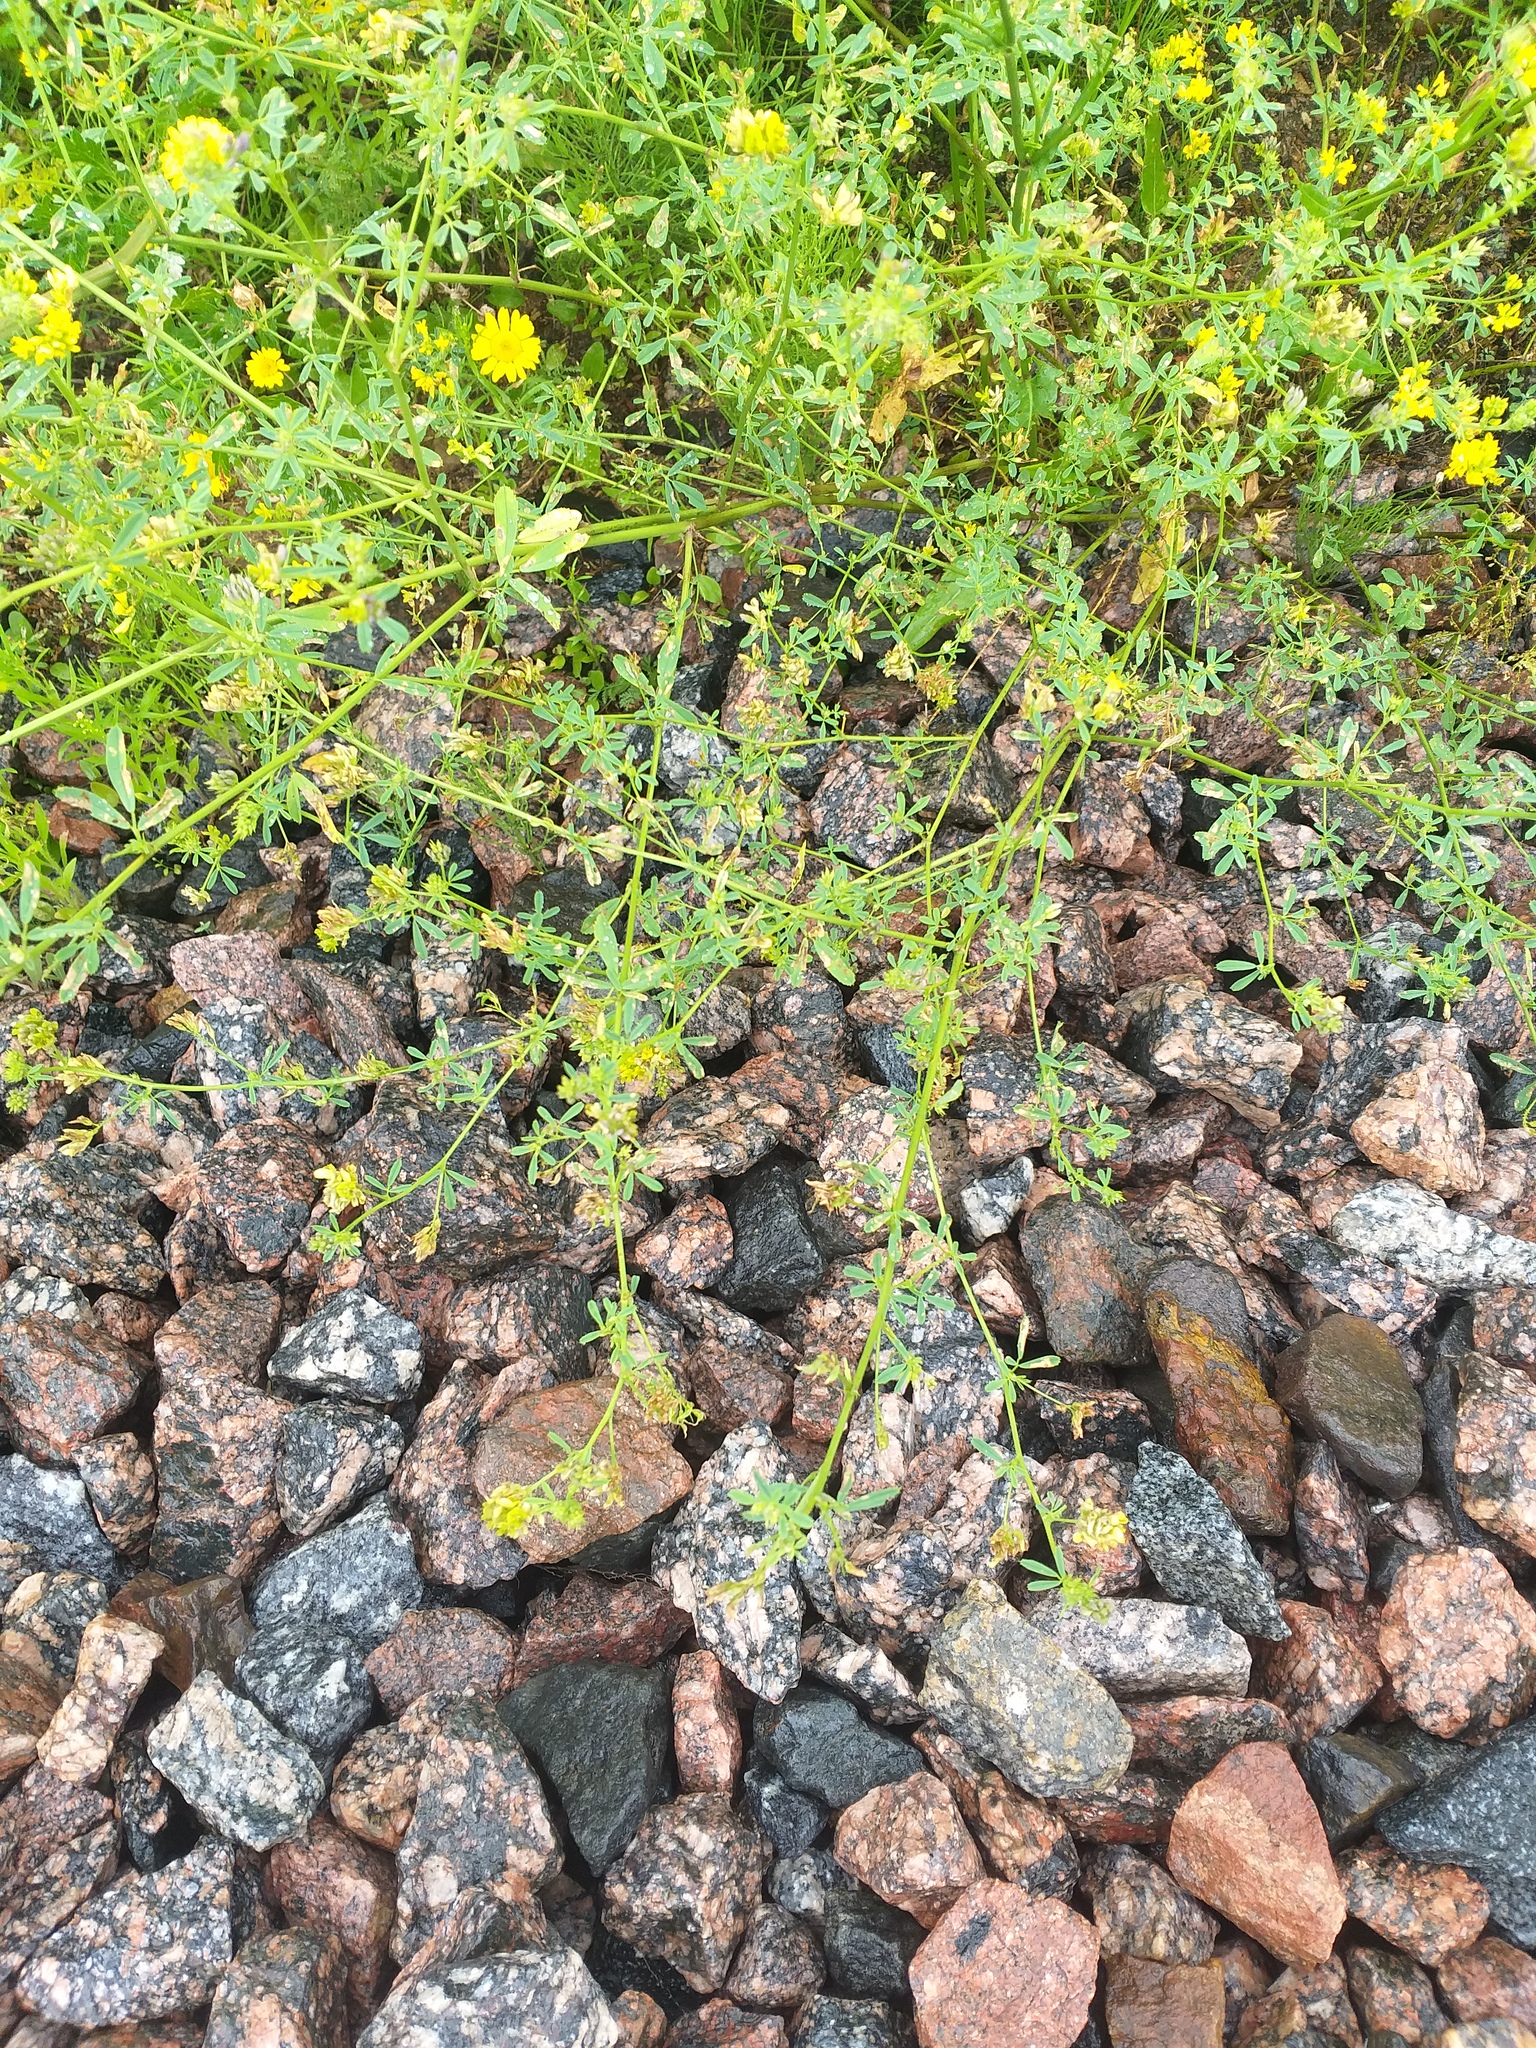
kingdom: Plantae
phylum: Tracheophyta
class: Magnoliopsida
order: Fabales
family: Fabaceae
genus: Medicago
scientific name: Medicago varia
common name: Sand lucerne
